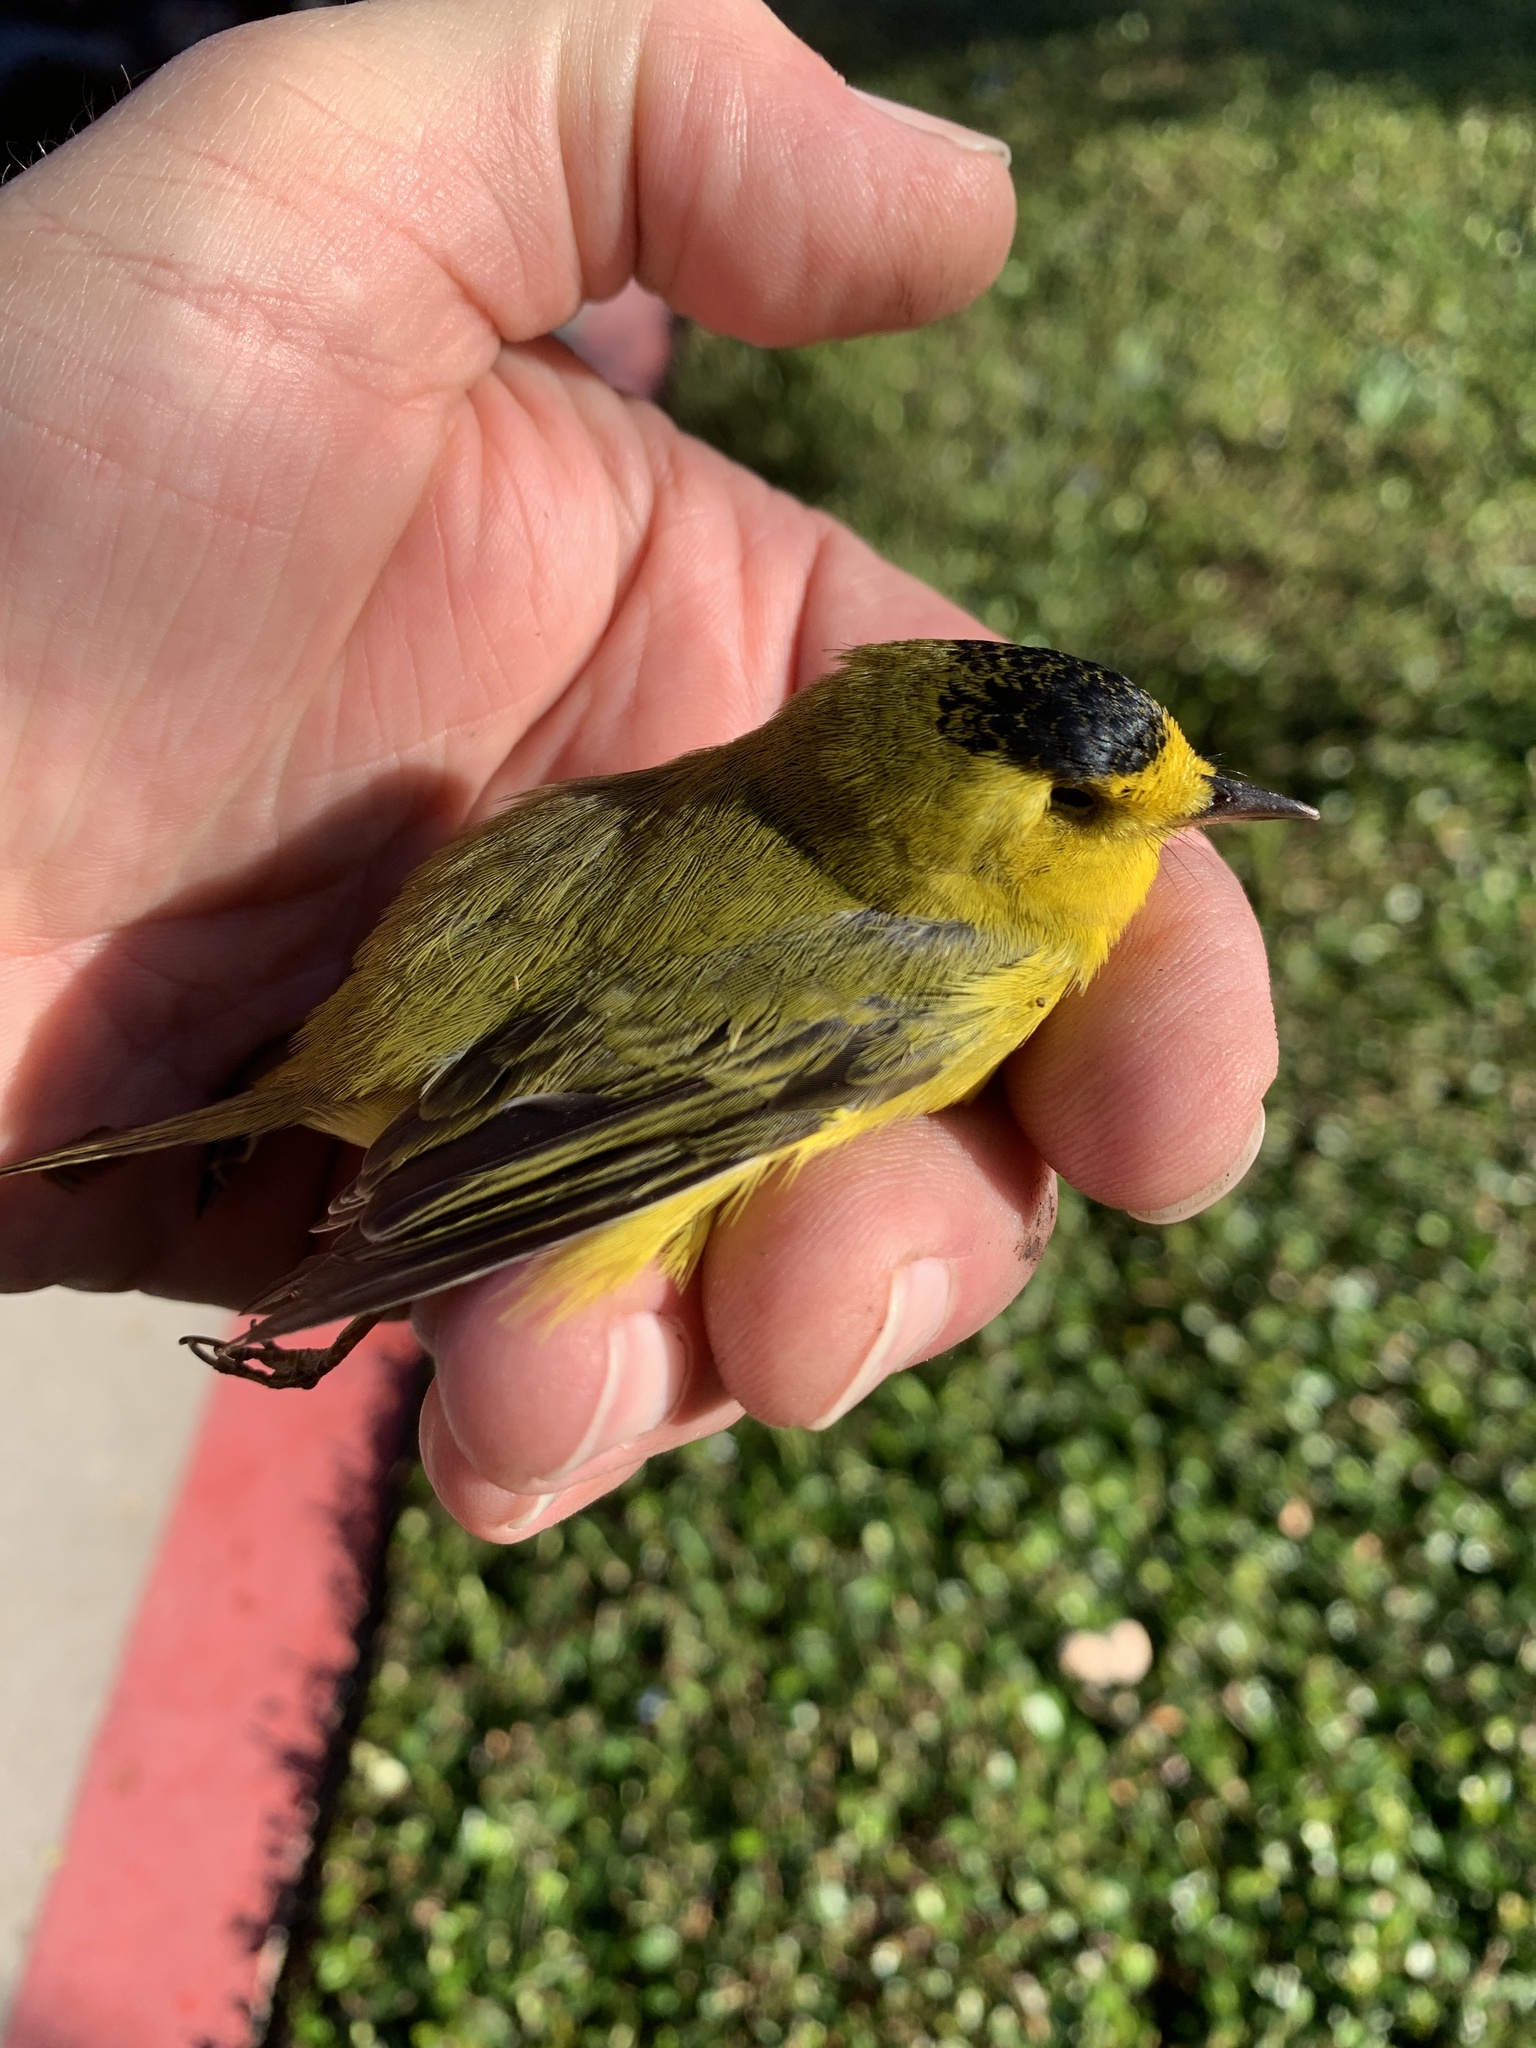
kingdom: Animalia
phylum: Chordata
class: Aves
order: Passeriformes
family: Parulidae
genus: Cardellina
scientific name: Cardellina pusilla
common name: Wilson's warbler
